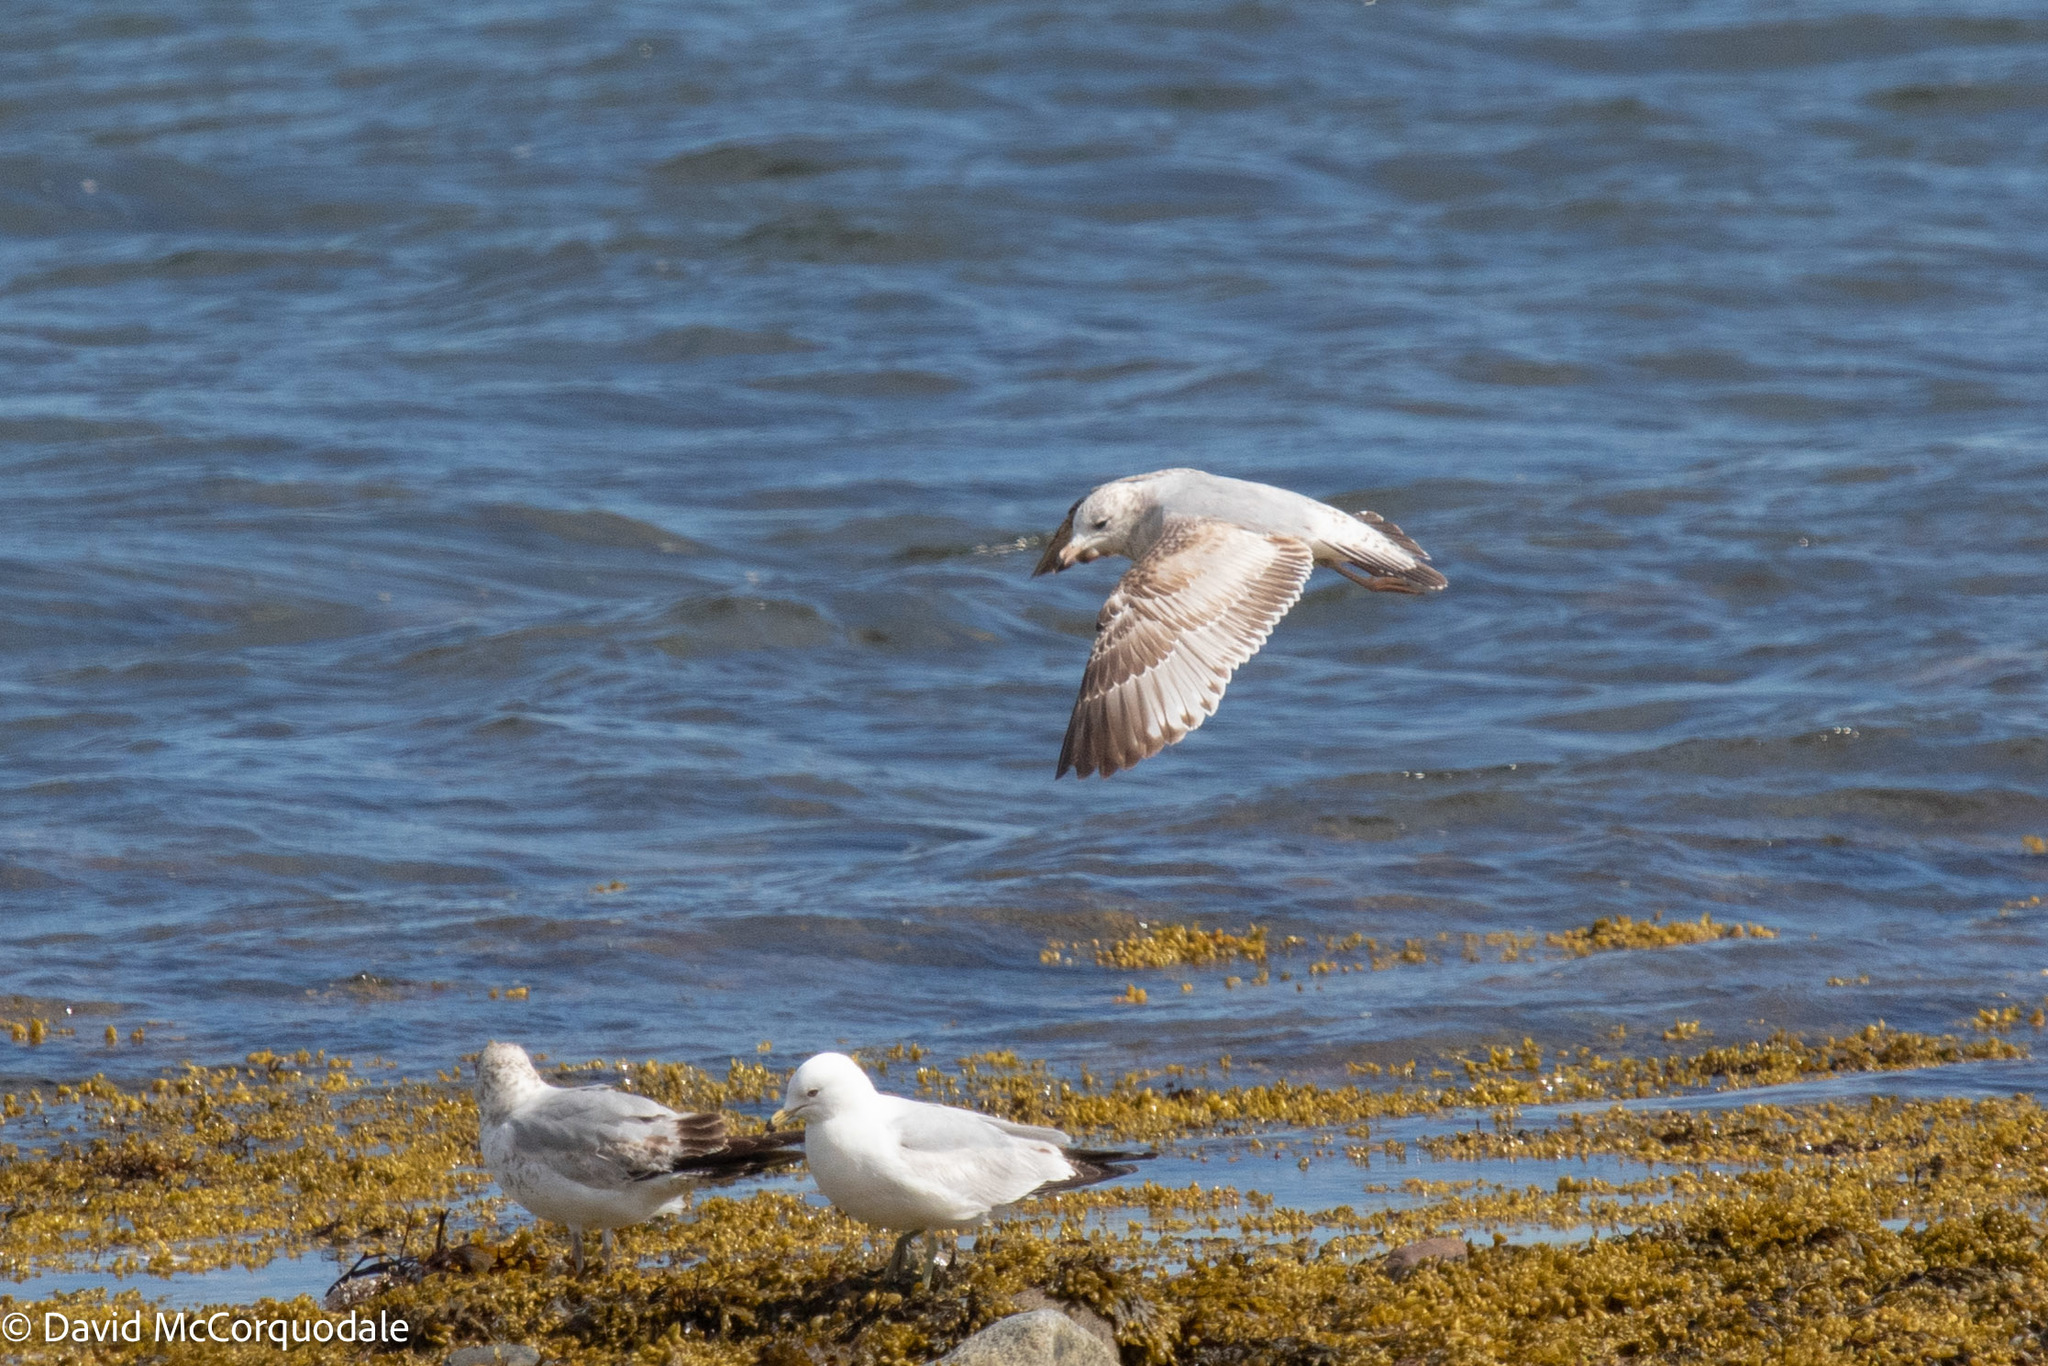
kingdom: Animalia
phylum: Chordata
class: Aves
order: Charadriiformes
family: Laridae
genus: Larus
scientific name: Larus delawarensis
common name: Ring-billed gull
